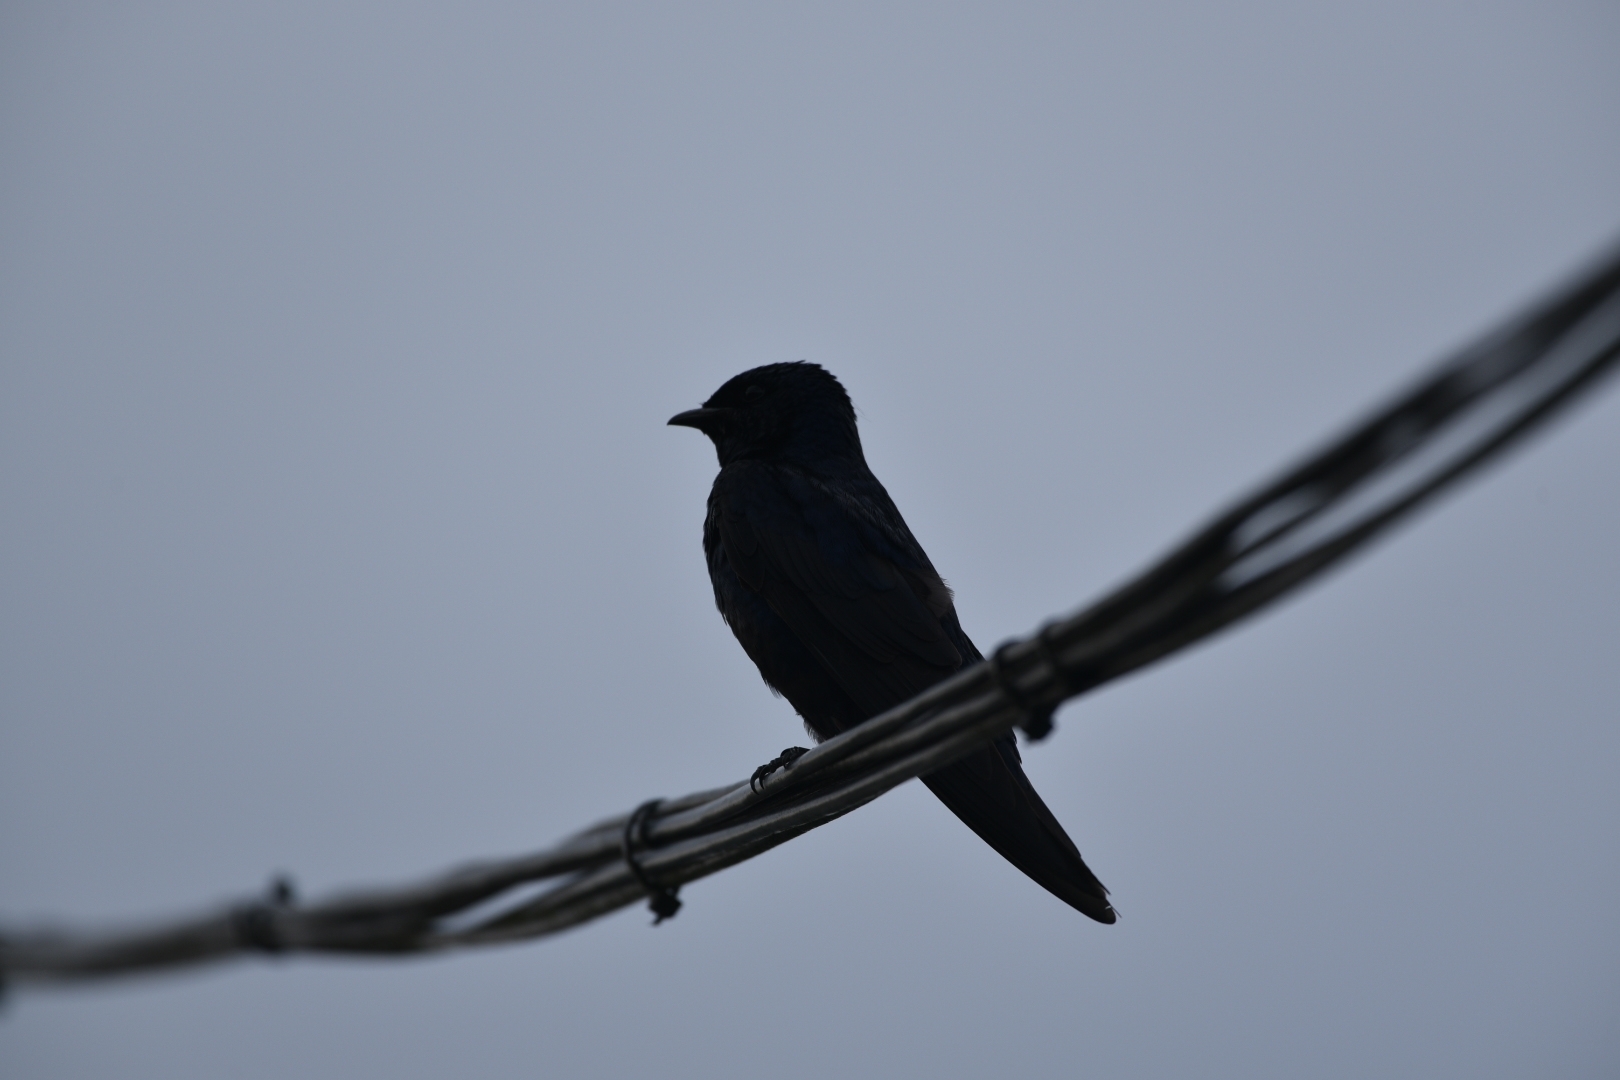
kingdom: Animalia
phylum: Chordata
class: Aves
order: Passeriformes
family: Hirundinidae
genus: Progne
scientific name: Progne subis
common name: Purple martin
